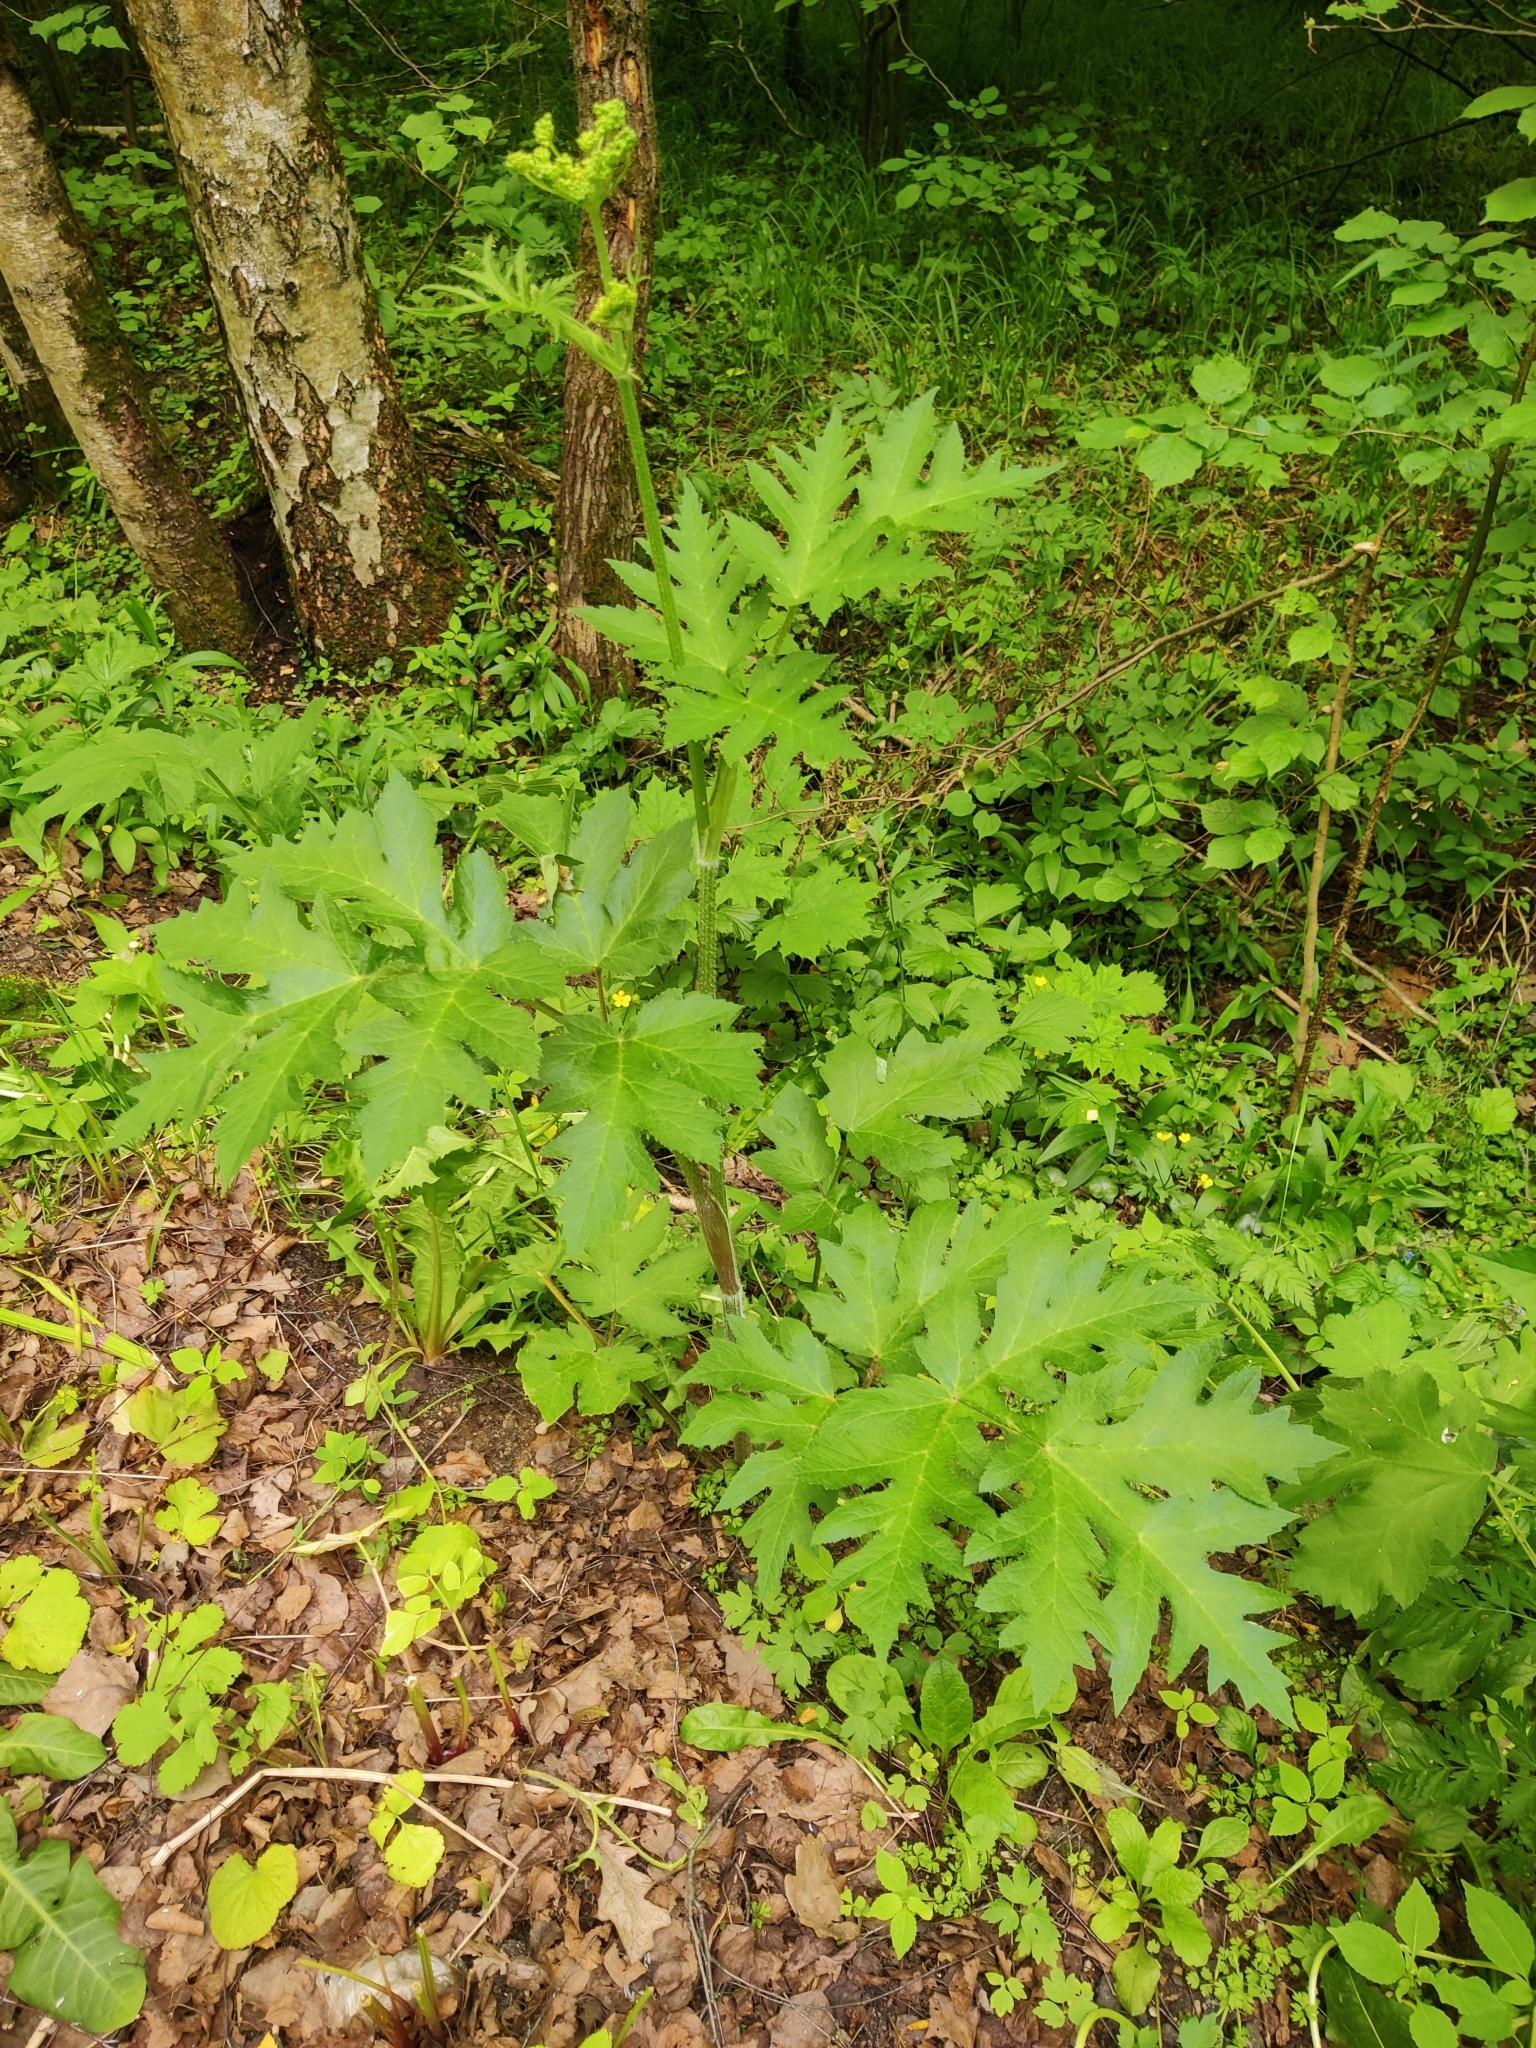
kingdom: Plantae
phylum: Tracheophyta
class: Magnoliopsida
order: Apiales
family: Apiaceae
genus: Heracleum
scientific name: Heracleum sphondylium
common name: Hogweed
